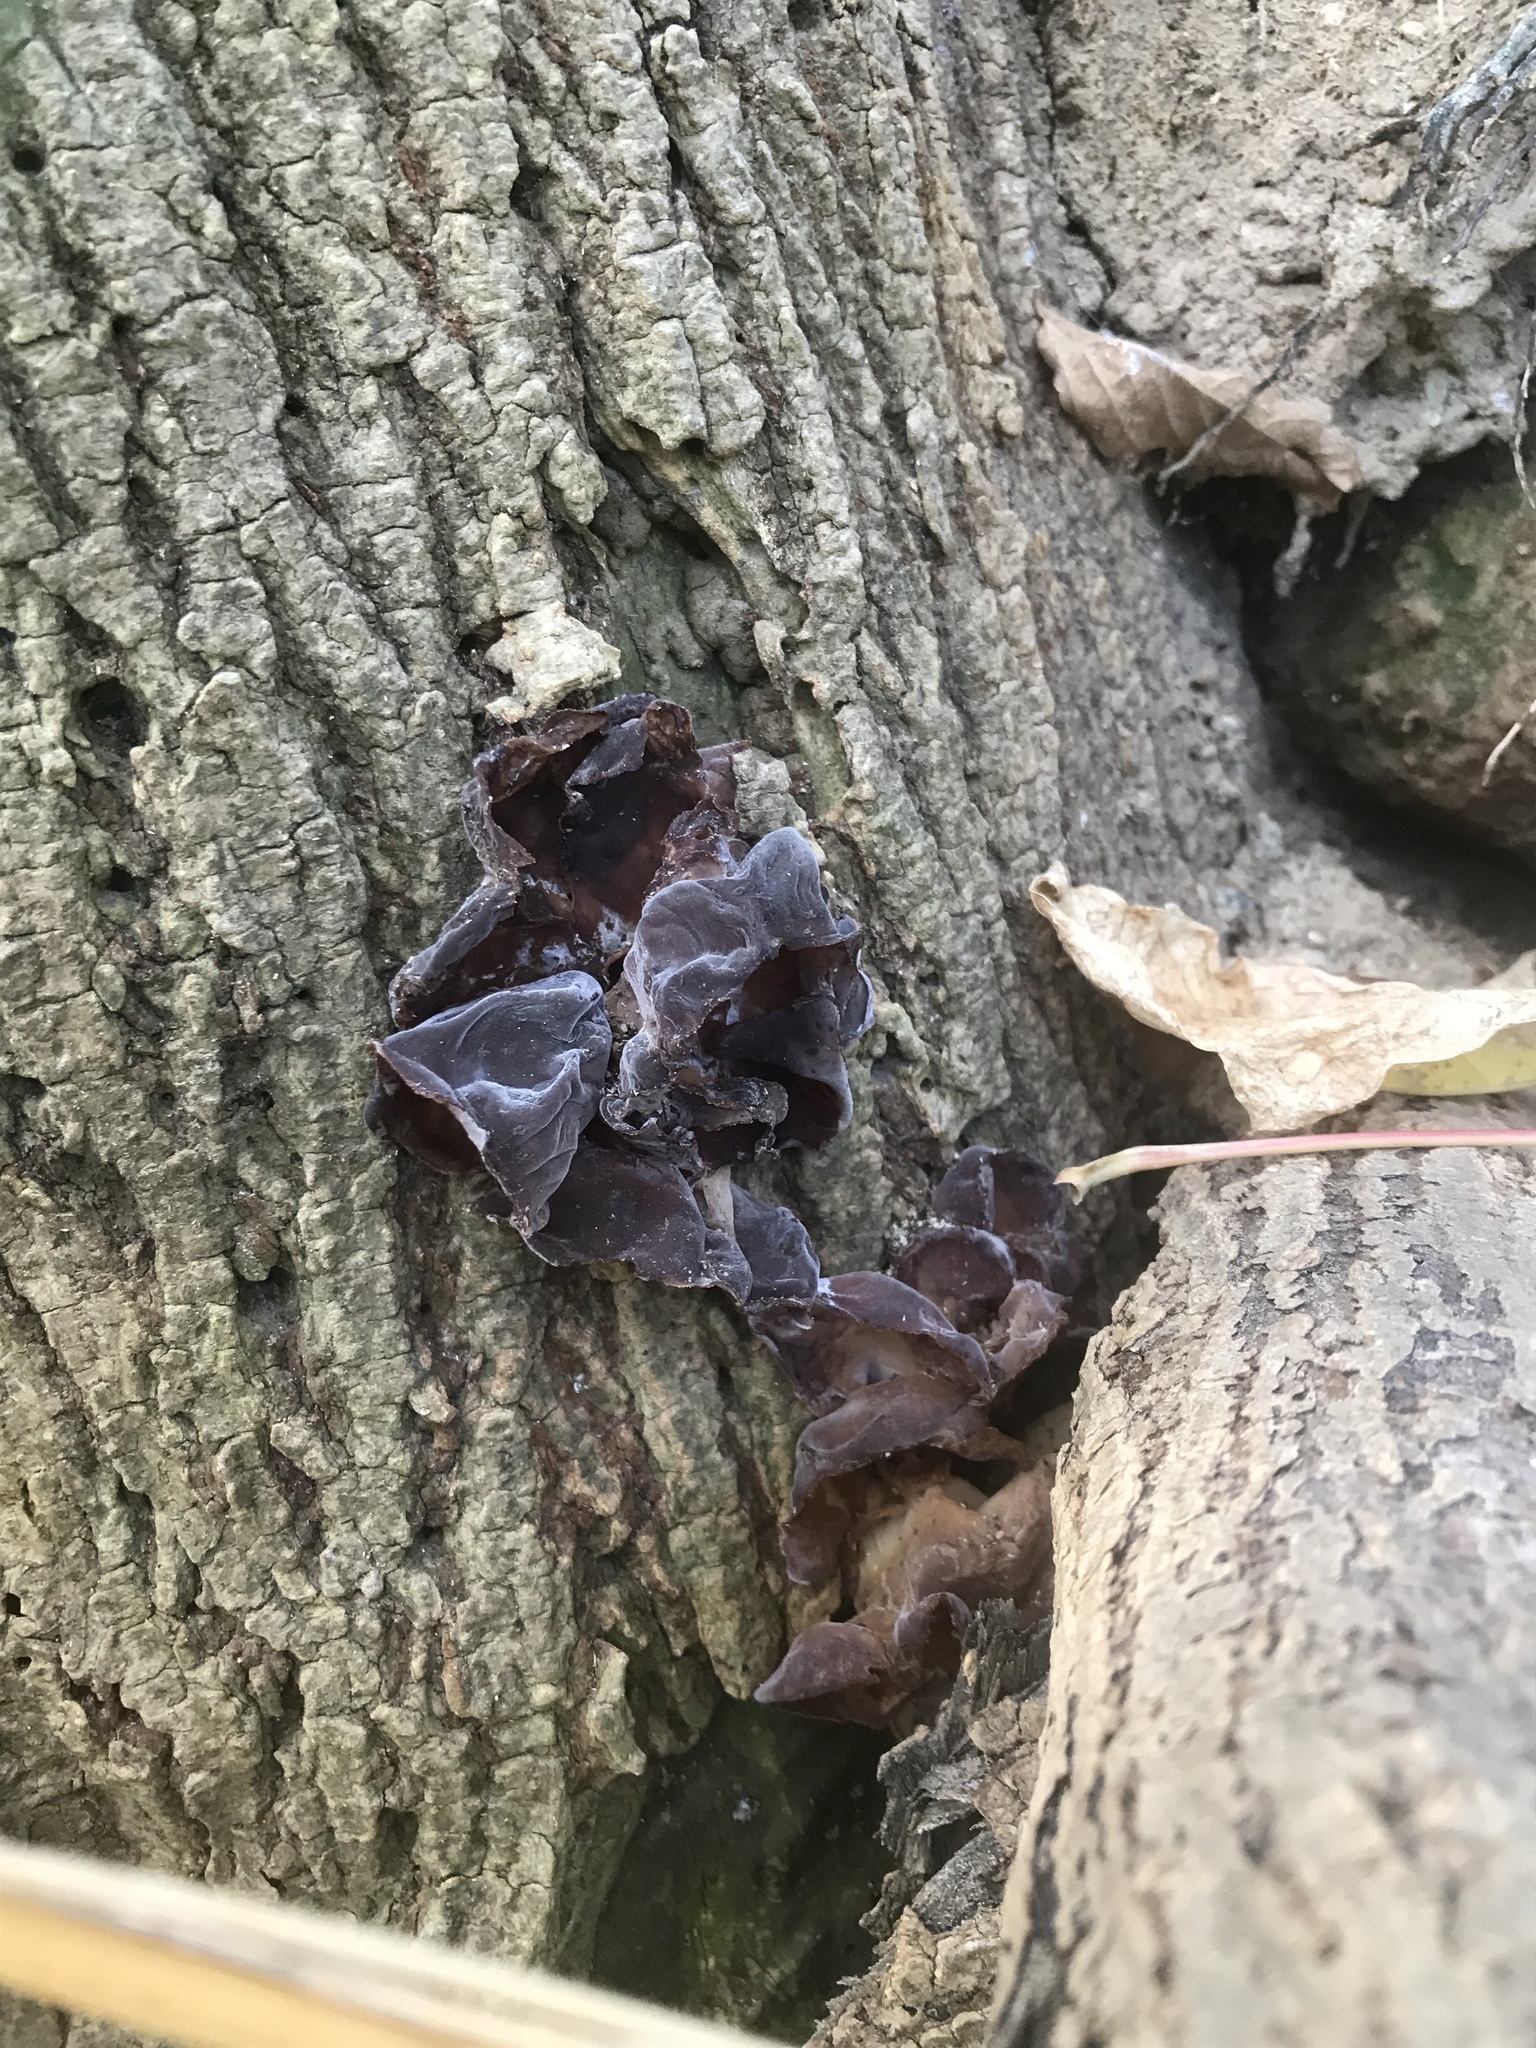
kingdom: Fungi
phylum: Basidiomycota
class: Agaricomycetes
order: Auriculariales
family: Auriculariaceae
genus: Auricularia
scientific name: Auricularia cornea
